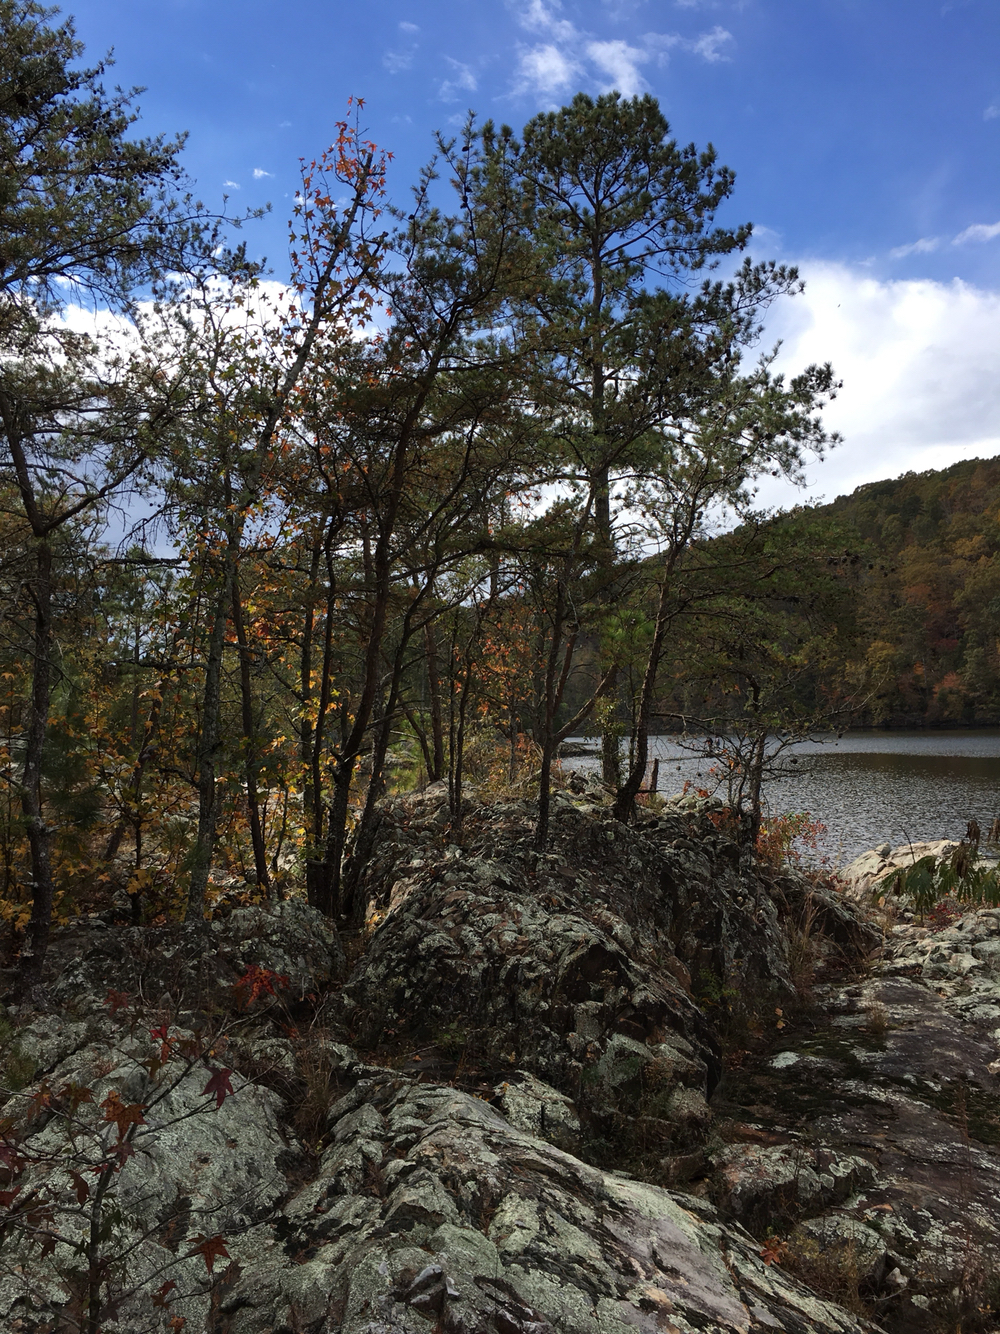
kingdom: Plantae
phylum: Tracheophyta
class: Pinopsida
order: Pinales
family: Pinaceae
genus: Pinus
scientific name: Pinus virginiana
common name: Scrub pine
